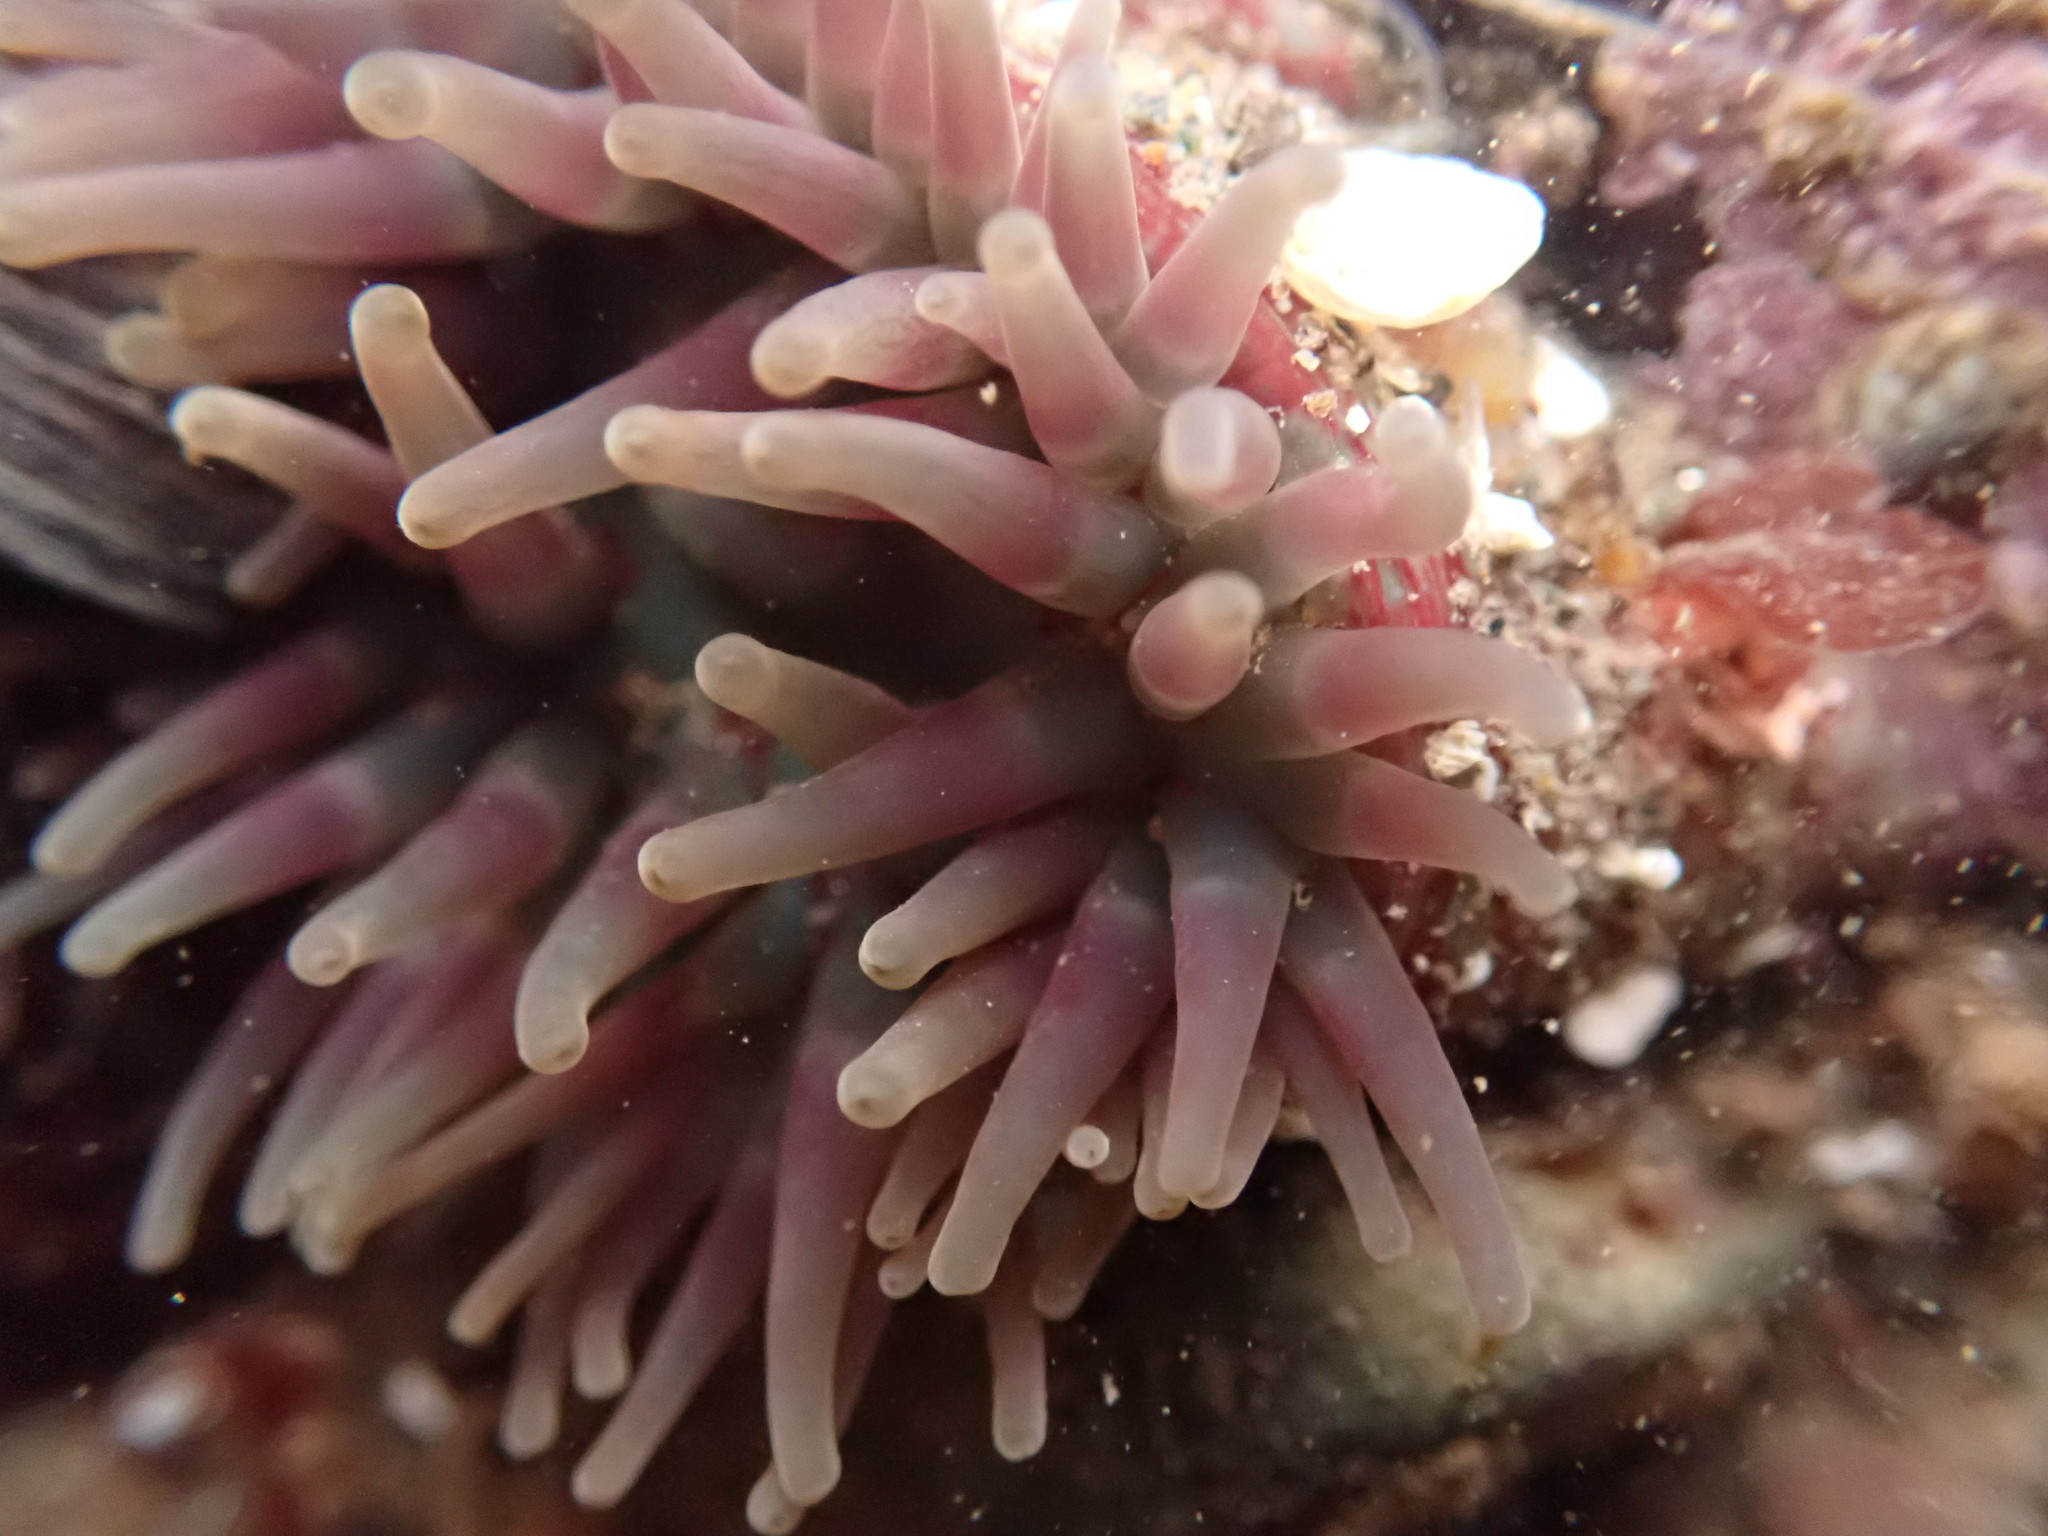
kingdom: Animalia
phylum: Cnidaria
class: Anthozoa
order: Actiniaria
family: Actiniidae
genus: Urticina
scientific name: Urticina crassicornis
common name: Mottled anemone
